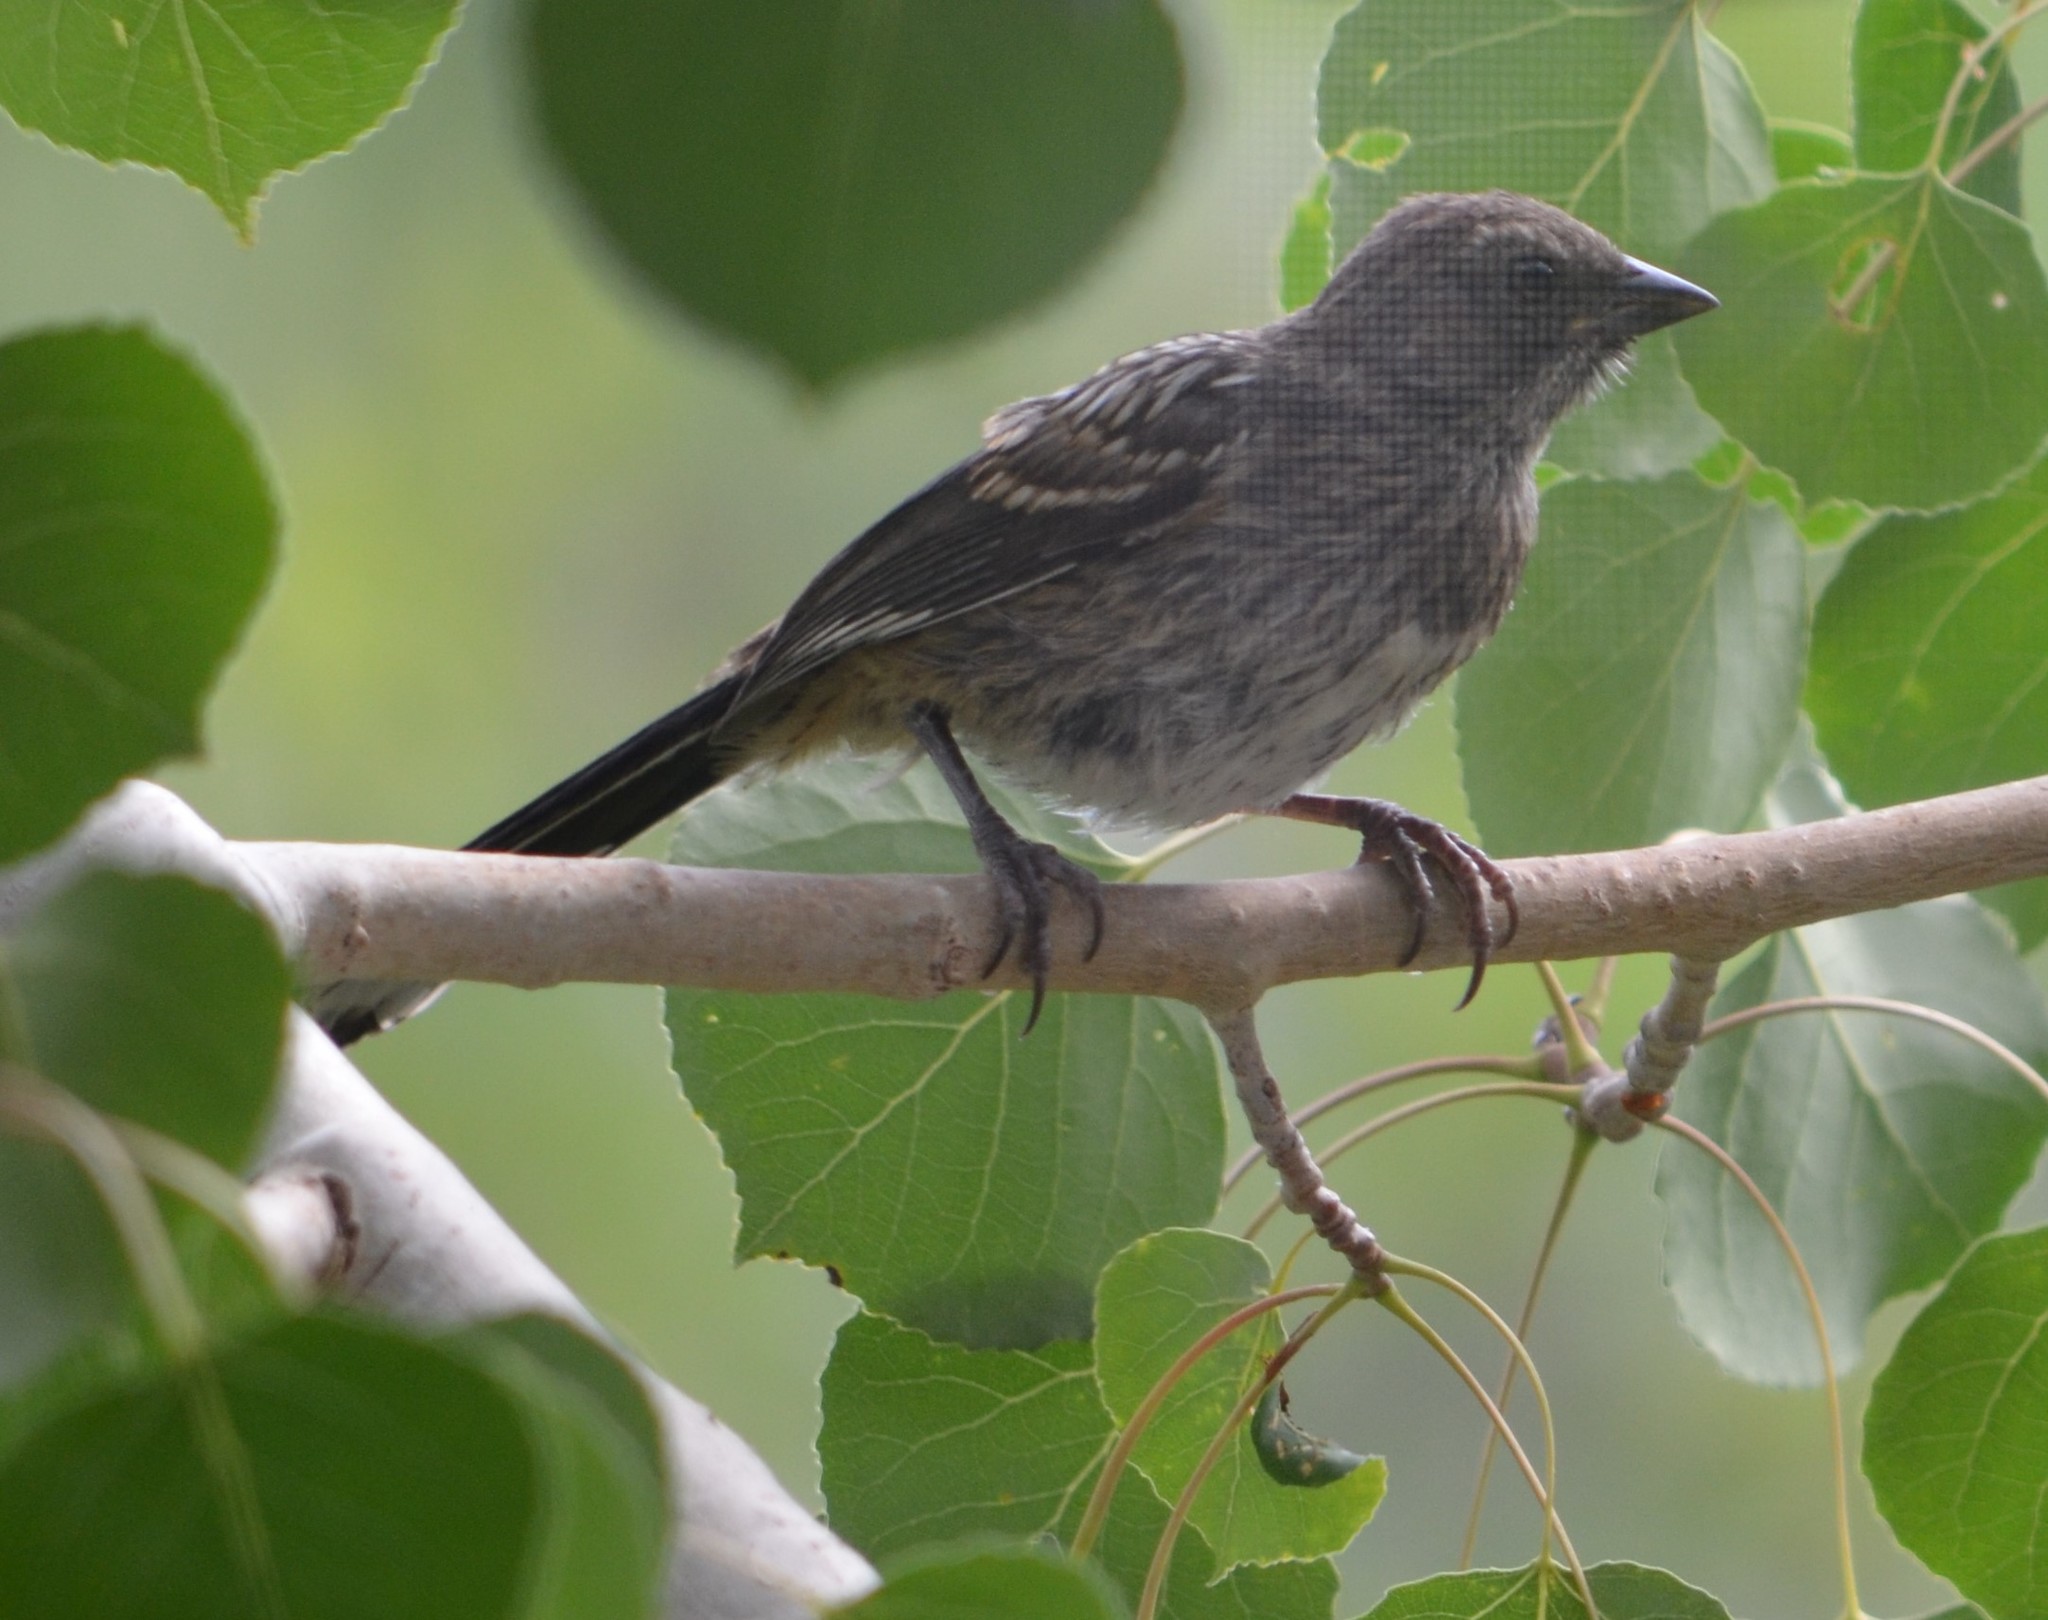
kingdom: Animalia
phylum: Chordata
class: Aves
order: Passeriformes
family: Passerellidae
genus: Pipilo
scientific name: Pipilo maculatus
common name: Spotted towhee
